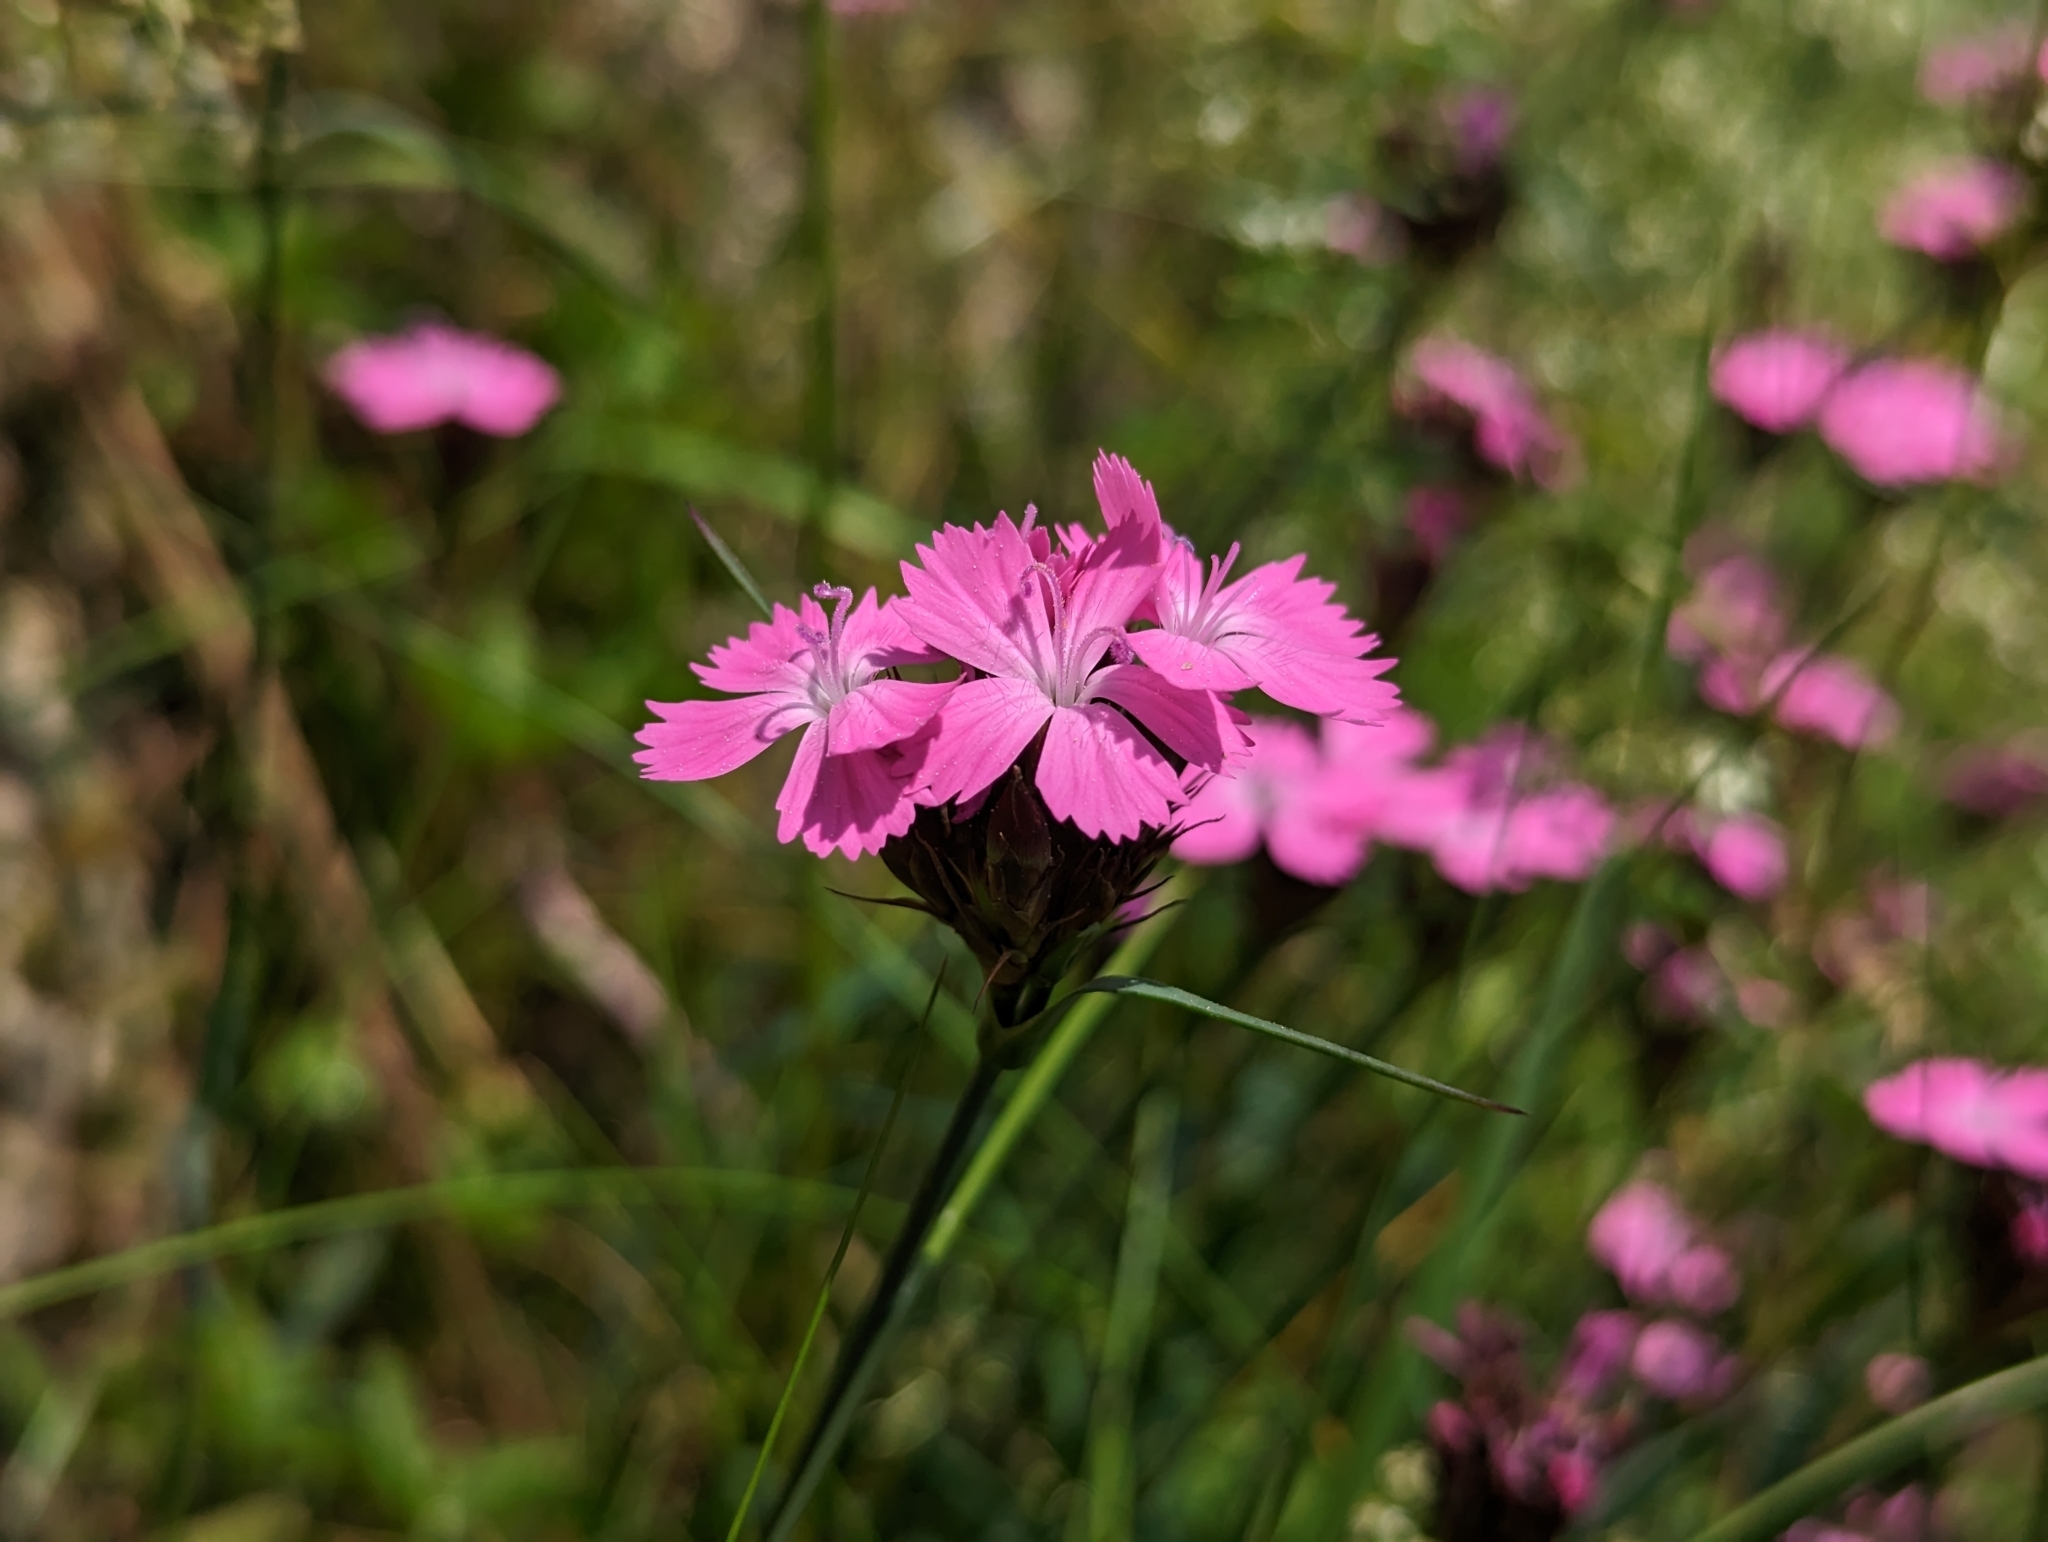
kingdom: Plantae
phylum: Tracheophyta
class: Magnoliopsida
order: Caryophyllales
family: Caryophyllaceae
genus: Dianthus
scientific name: Dianthus carthusianorum
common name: Carthusian pink
